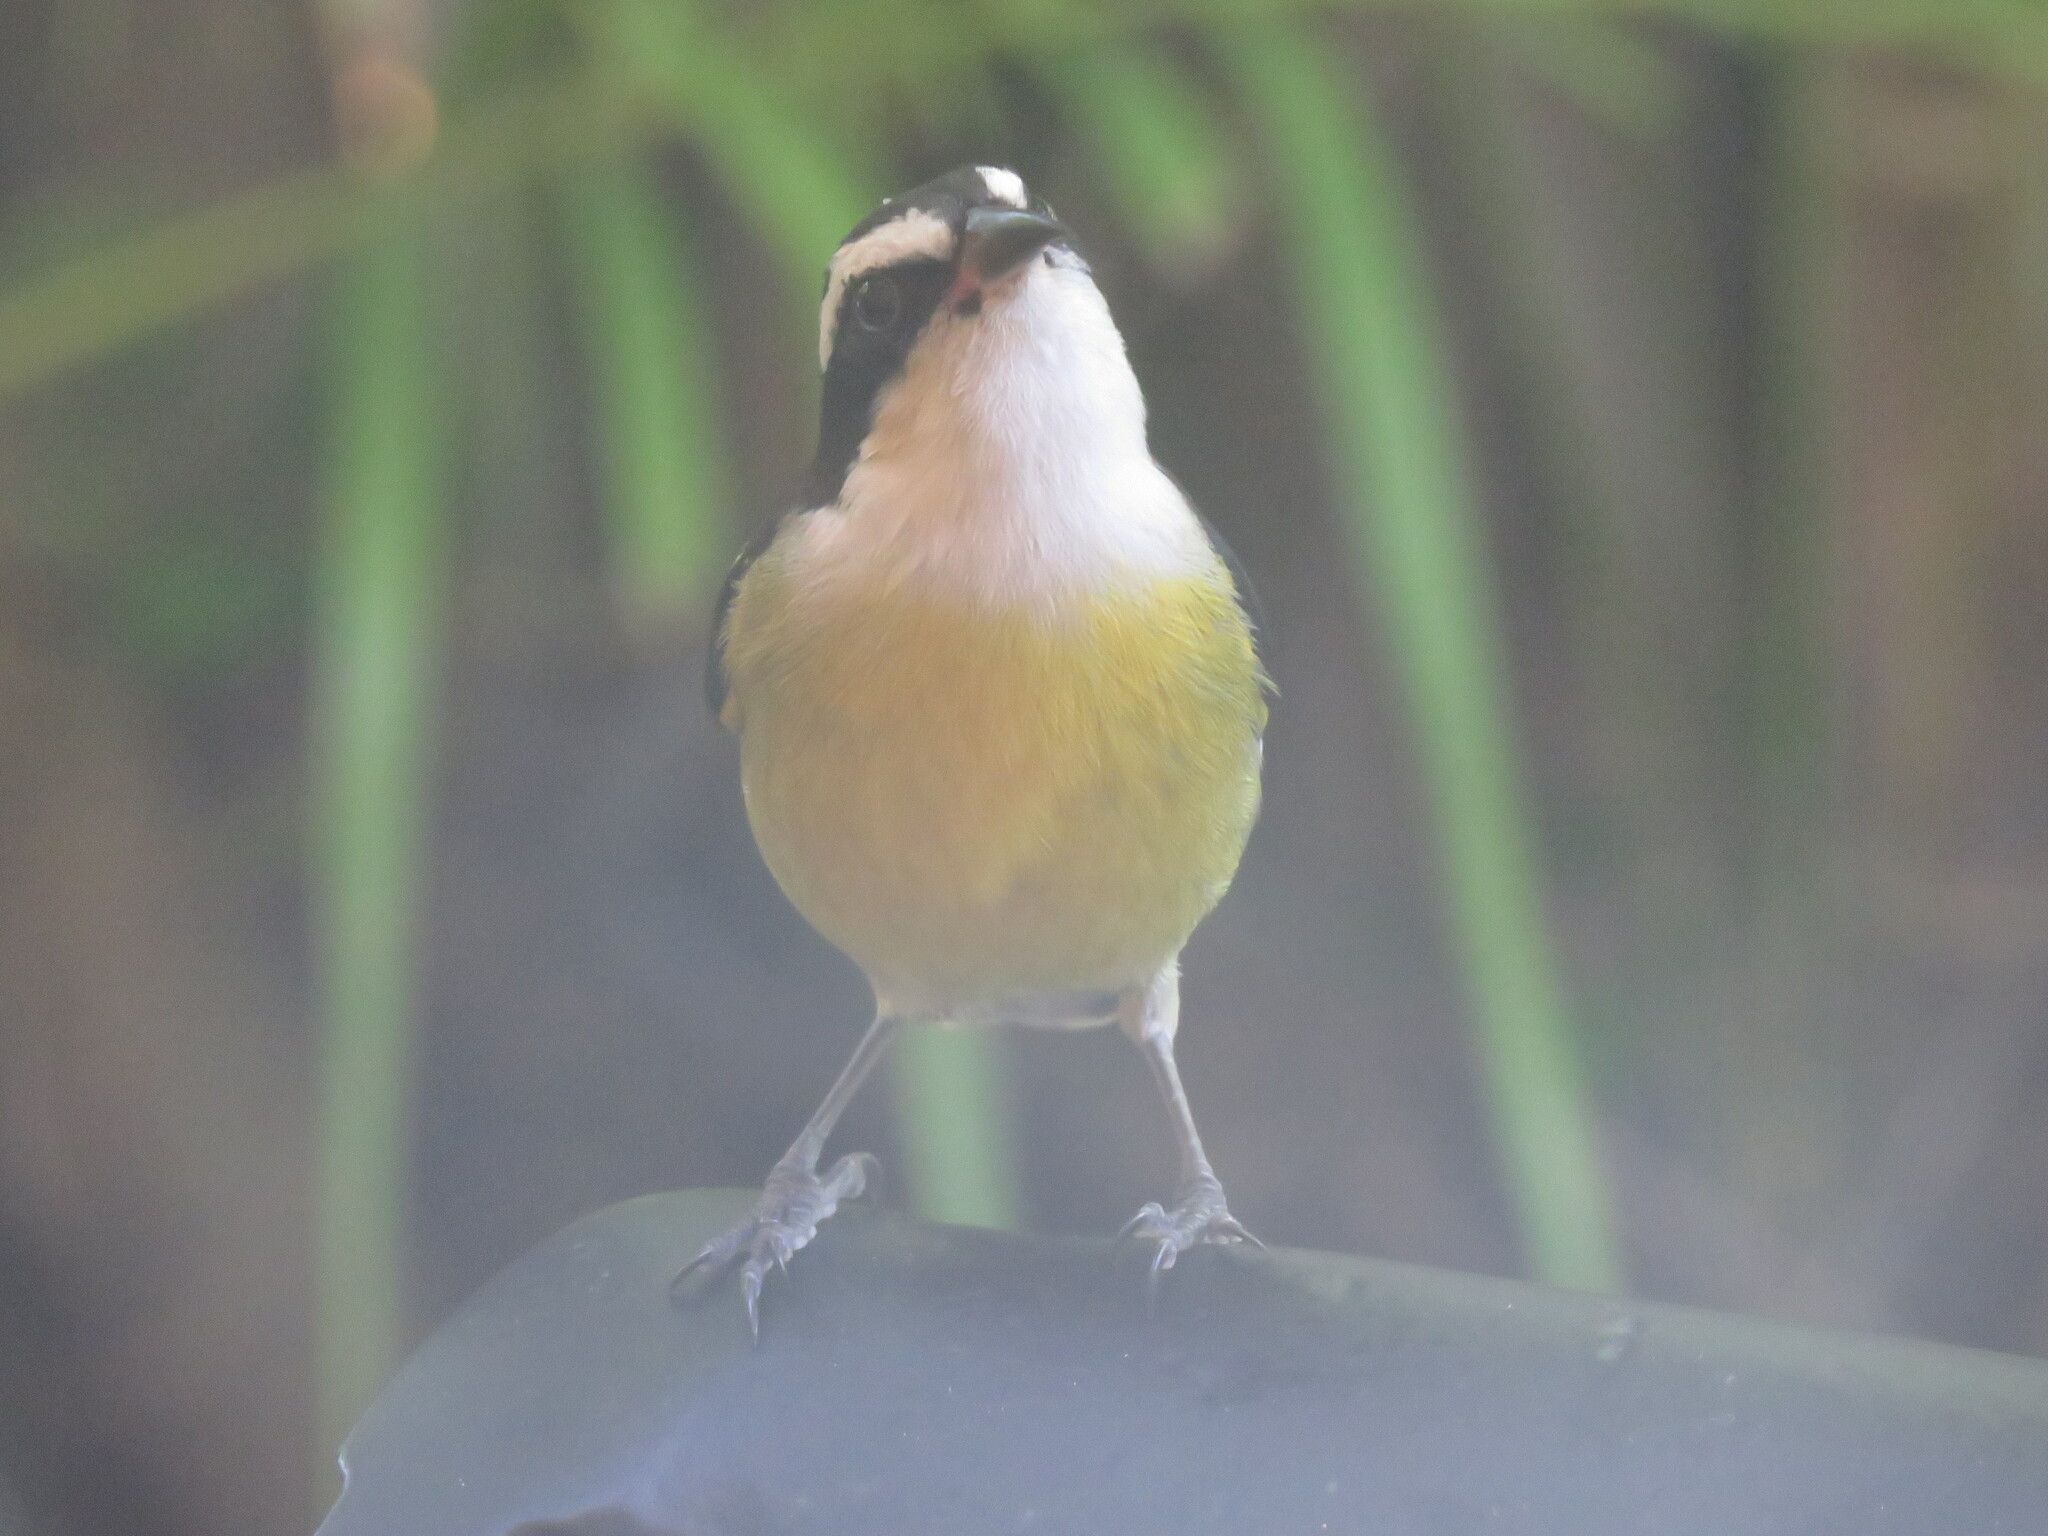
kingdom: Animalia
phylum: Chordata
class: Aves
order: Passeriformes
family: Thraupidae
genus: Coereba
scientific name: Coereba flaveola
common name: Bananaquit
